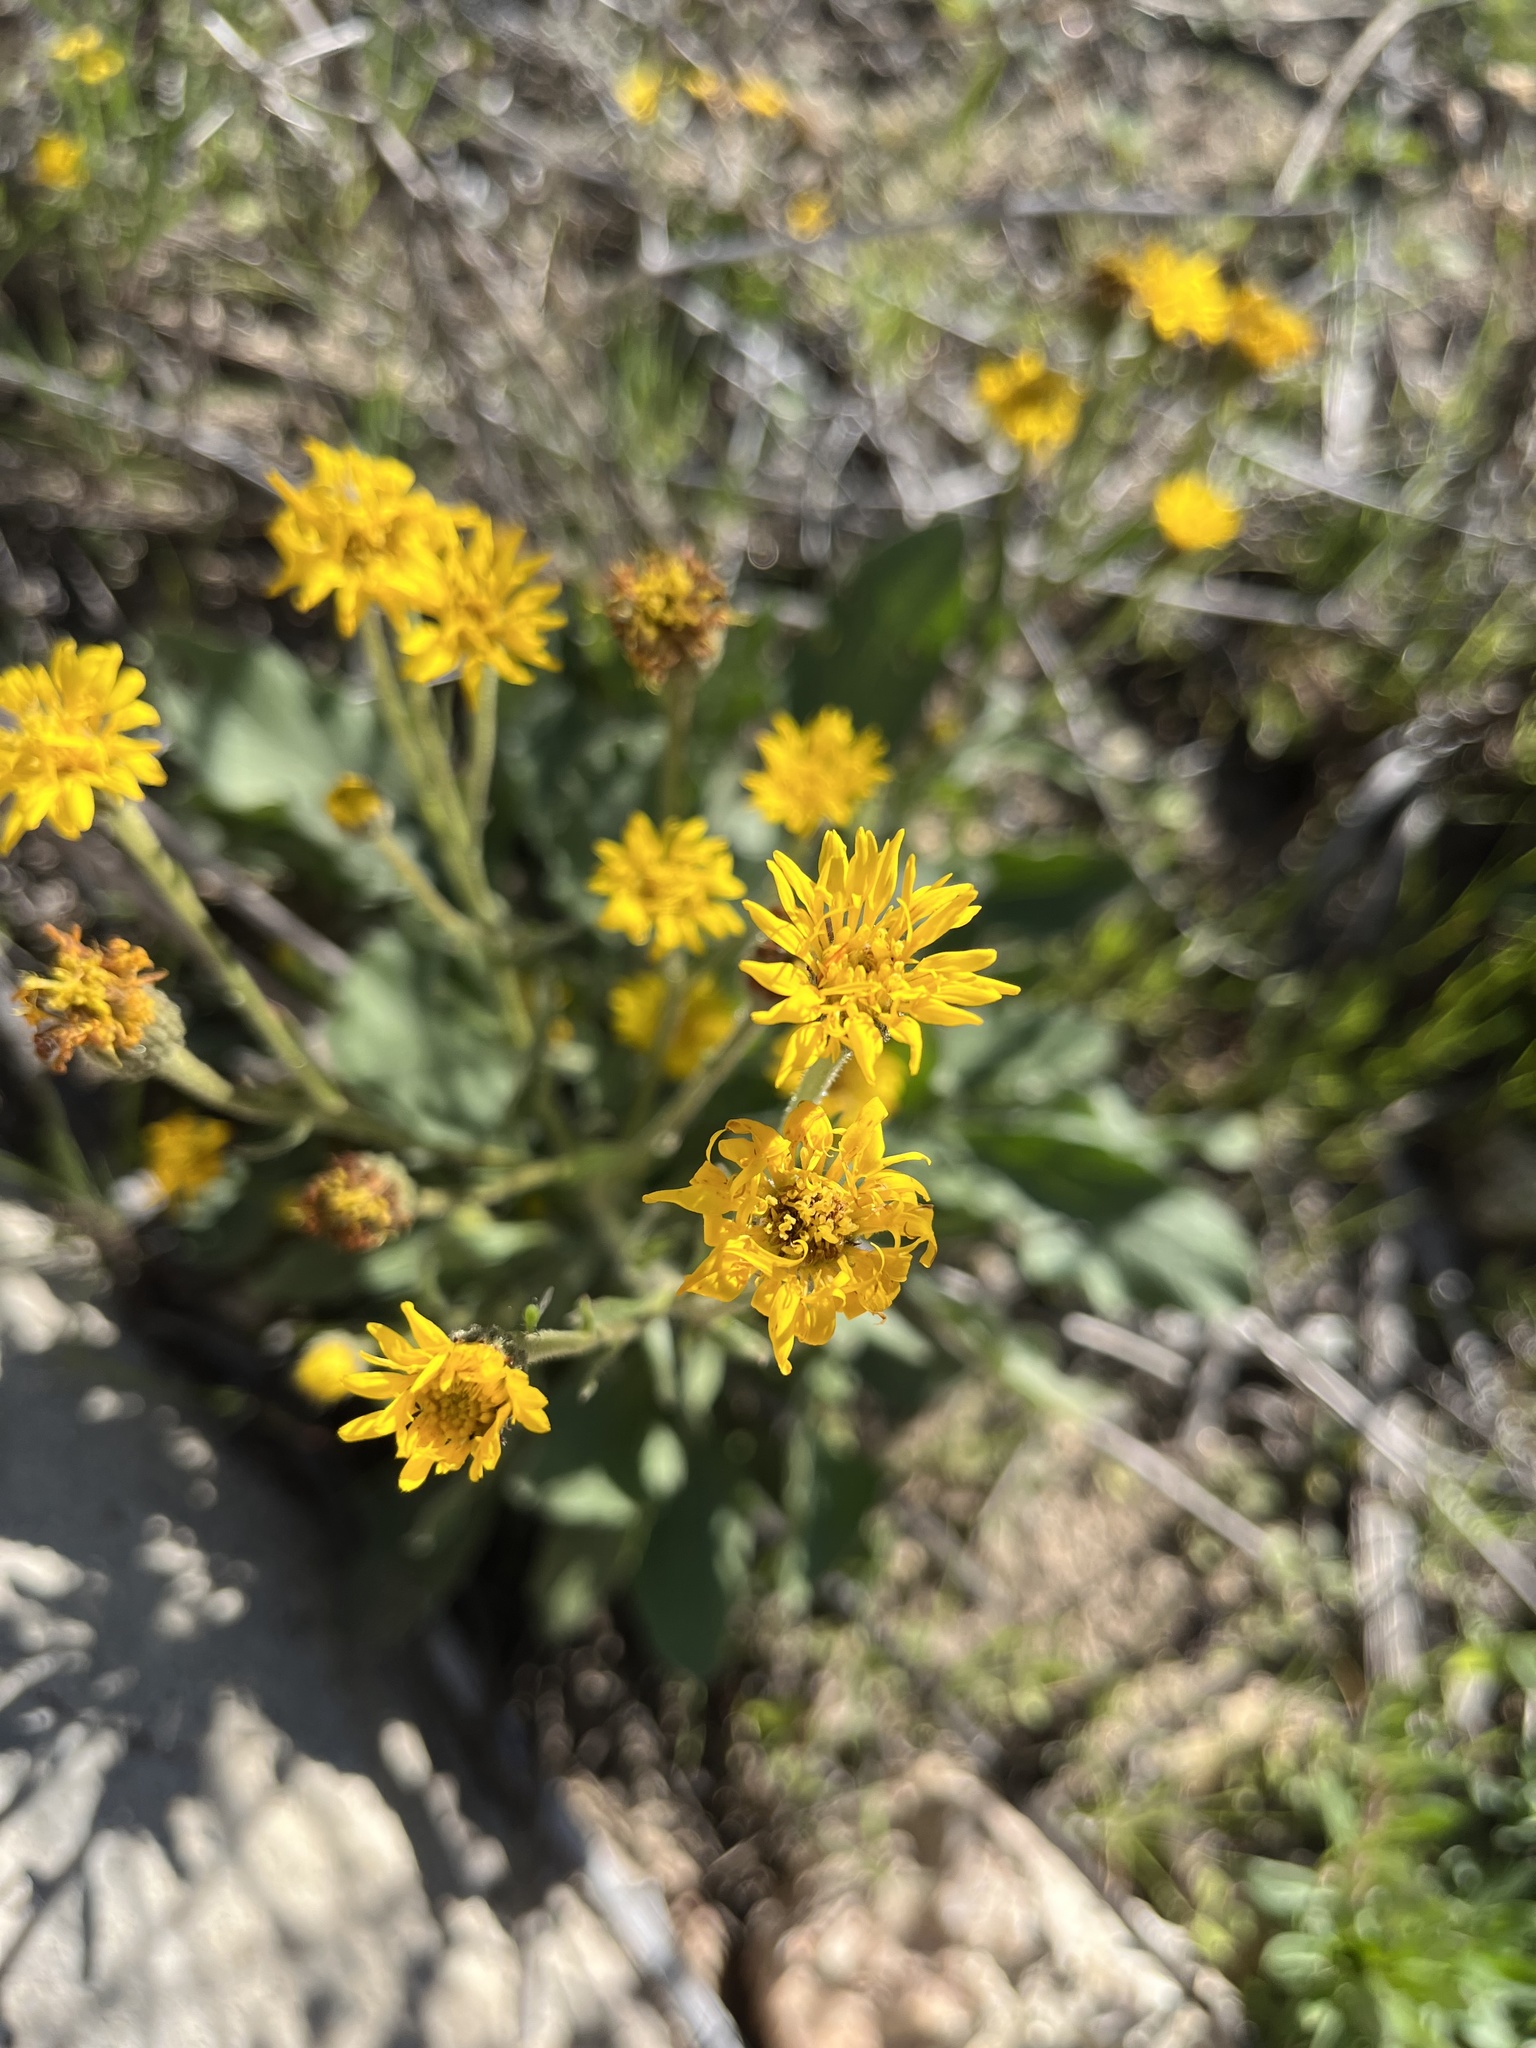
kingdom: Plantae
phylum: Tracheophyta
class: Magnoliopsida
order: Asterales
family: Asteraceae
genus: Heterotheca
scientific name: Heterotheca grandiflora
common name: Telegraphweed
